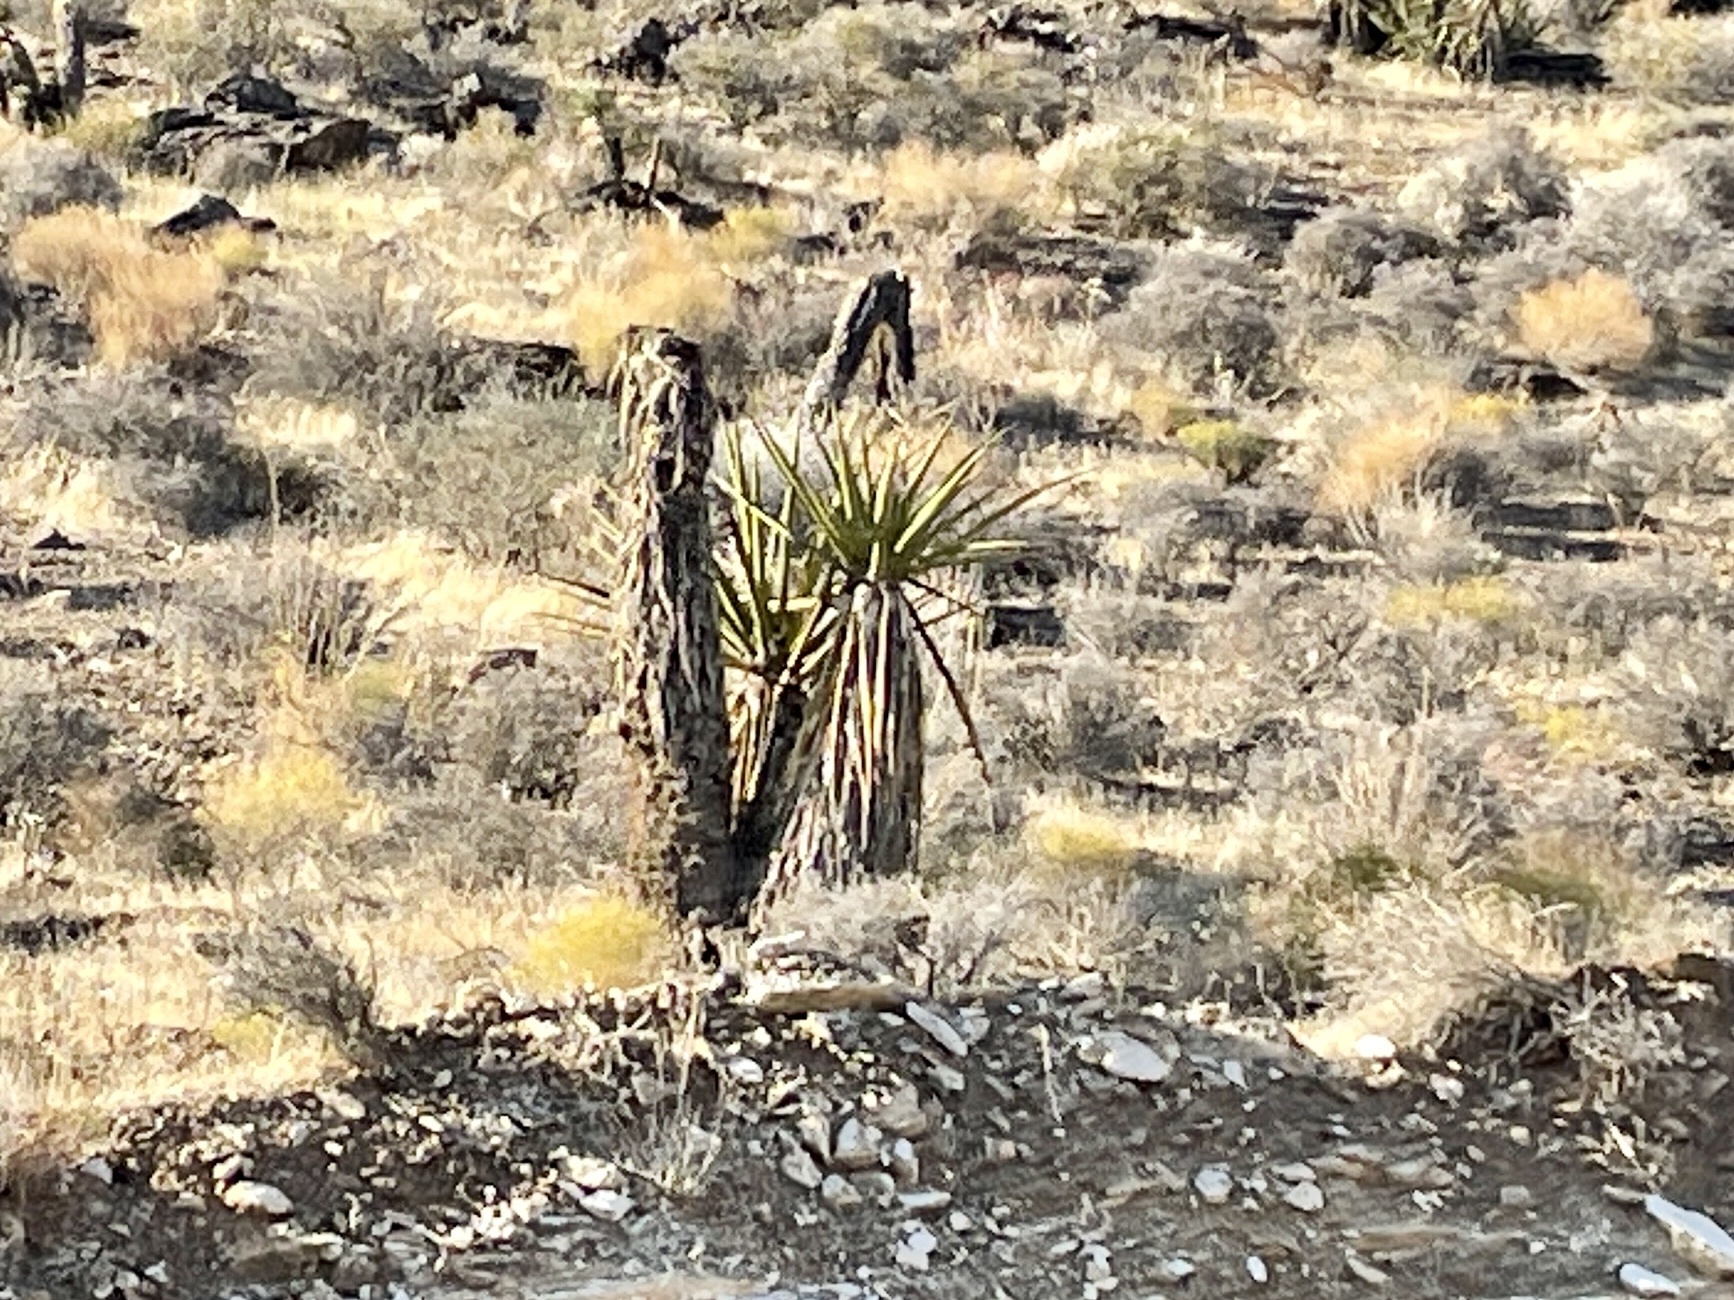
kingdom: Plantae
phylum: Tracheophyta
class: Liliopsida
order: Asparagales
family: Asparagaceae
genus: Yucca
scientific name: Yucca schidigera
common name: Mojave yucca
